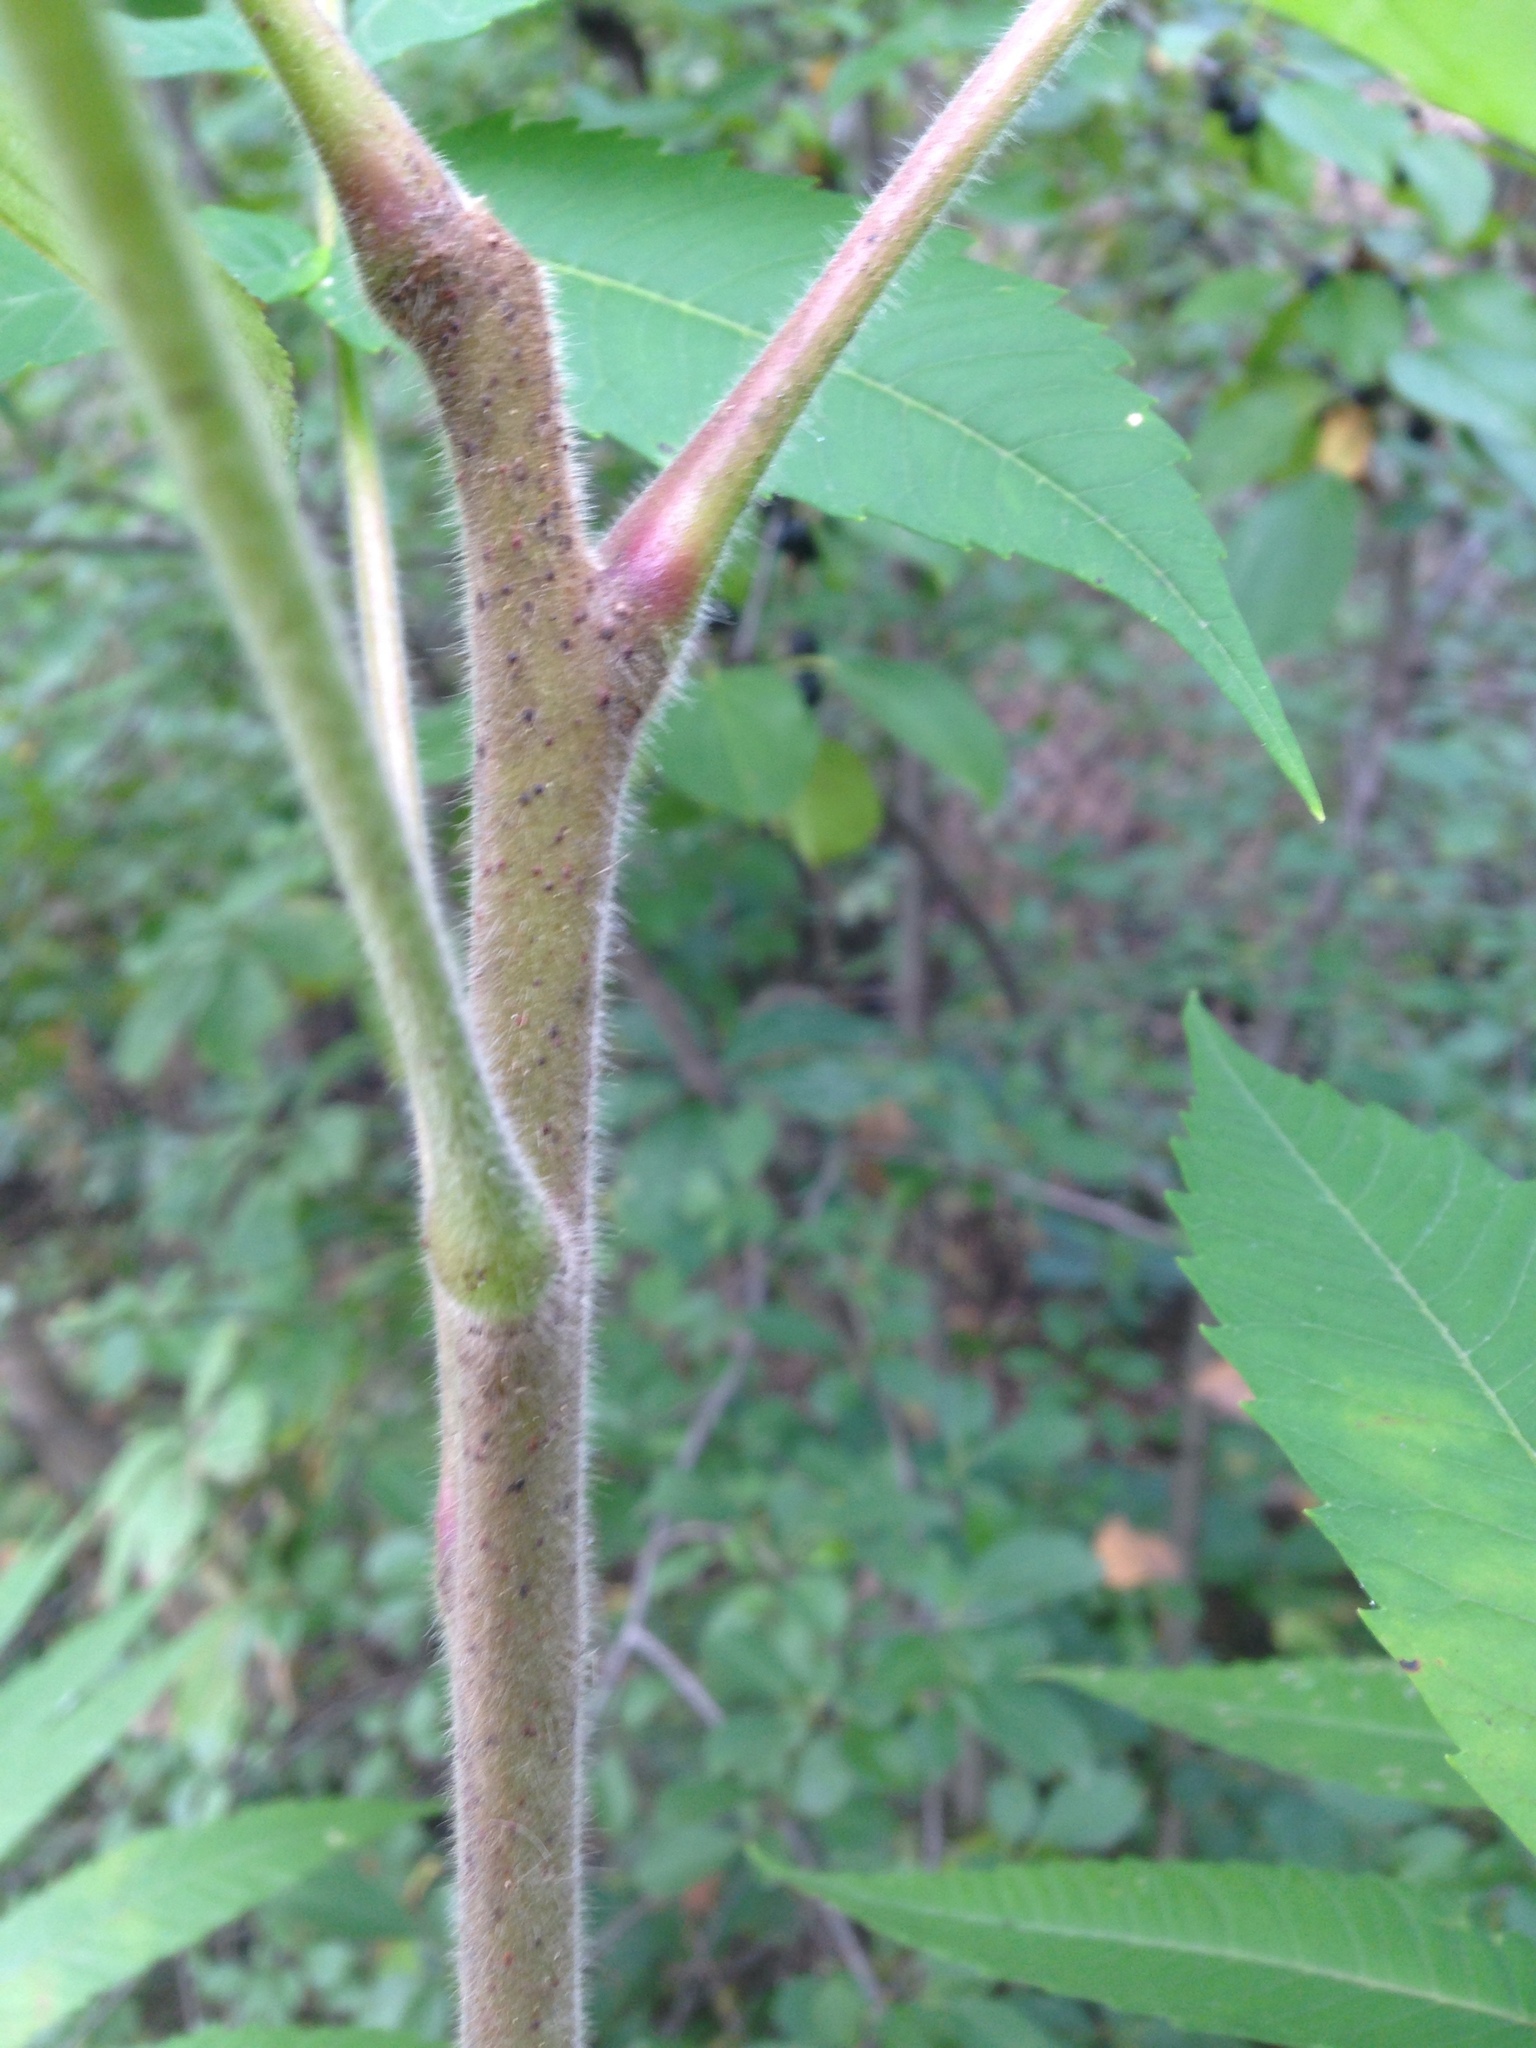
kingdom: Plantae
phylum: Tracheophyta
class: Magnoliopsida
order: Sapindales
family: Anacardiaceae
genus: Rhus
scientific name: Rhus typhina
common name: Staghorn sumac
